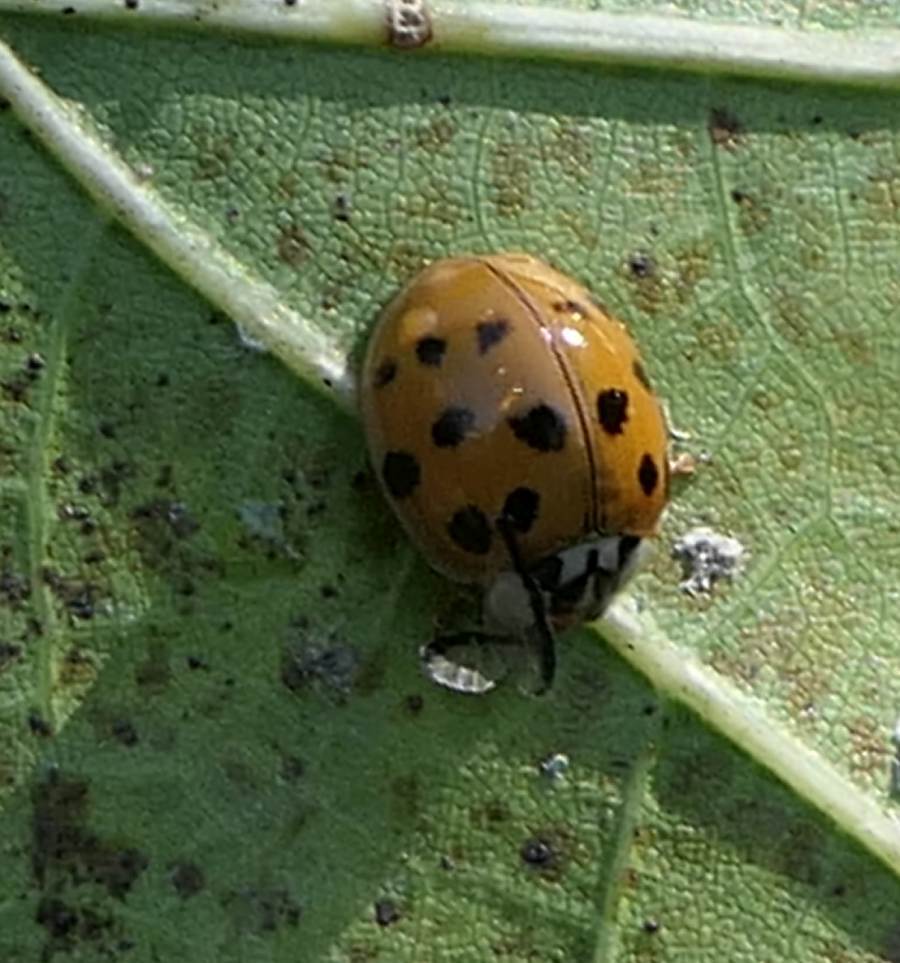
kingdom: Animalia
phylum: Arthropoda
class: Insecta
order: Coleoptera
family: Coccinellidae
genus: Harmonia
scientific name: Harmonia axyridis
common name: Harlequin ladybird
